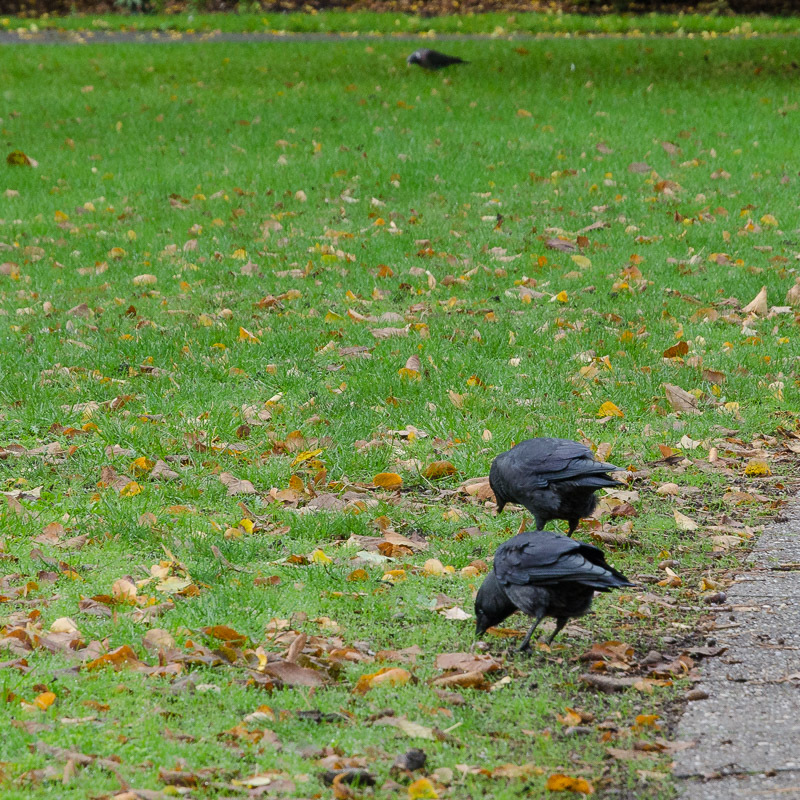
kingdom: Animalia
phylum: Chordata
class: Aves
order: Passeriformes
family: Corvidae
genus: Coloeus
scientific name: Coloeus monedula
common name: Western jackdaw
